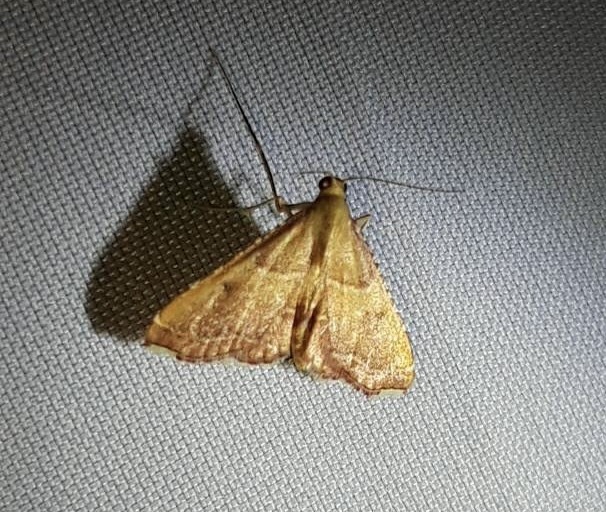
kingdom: Animalia
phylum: Arthropoda
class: Insecta
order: Lepidoptera
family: Pyralidae
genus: Endotricha
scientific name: Endotricha flammealis
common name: Rosy tabby
